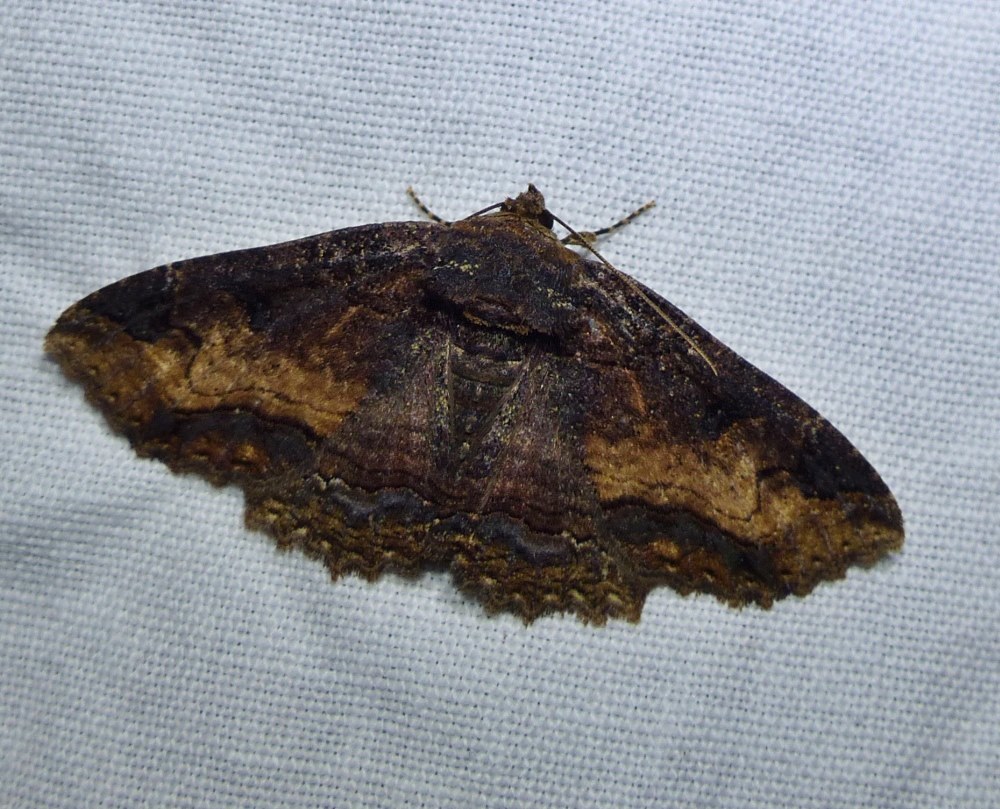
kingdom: Animalia
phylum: Arthropoda
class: Insecta
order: Lepidoptera
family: Erebidae
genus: Zale
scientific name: Zale minerea
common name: Colorful zale moth
